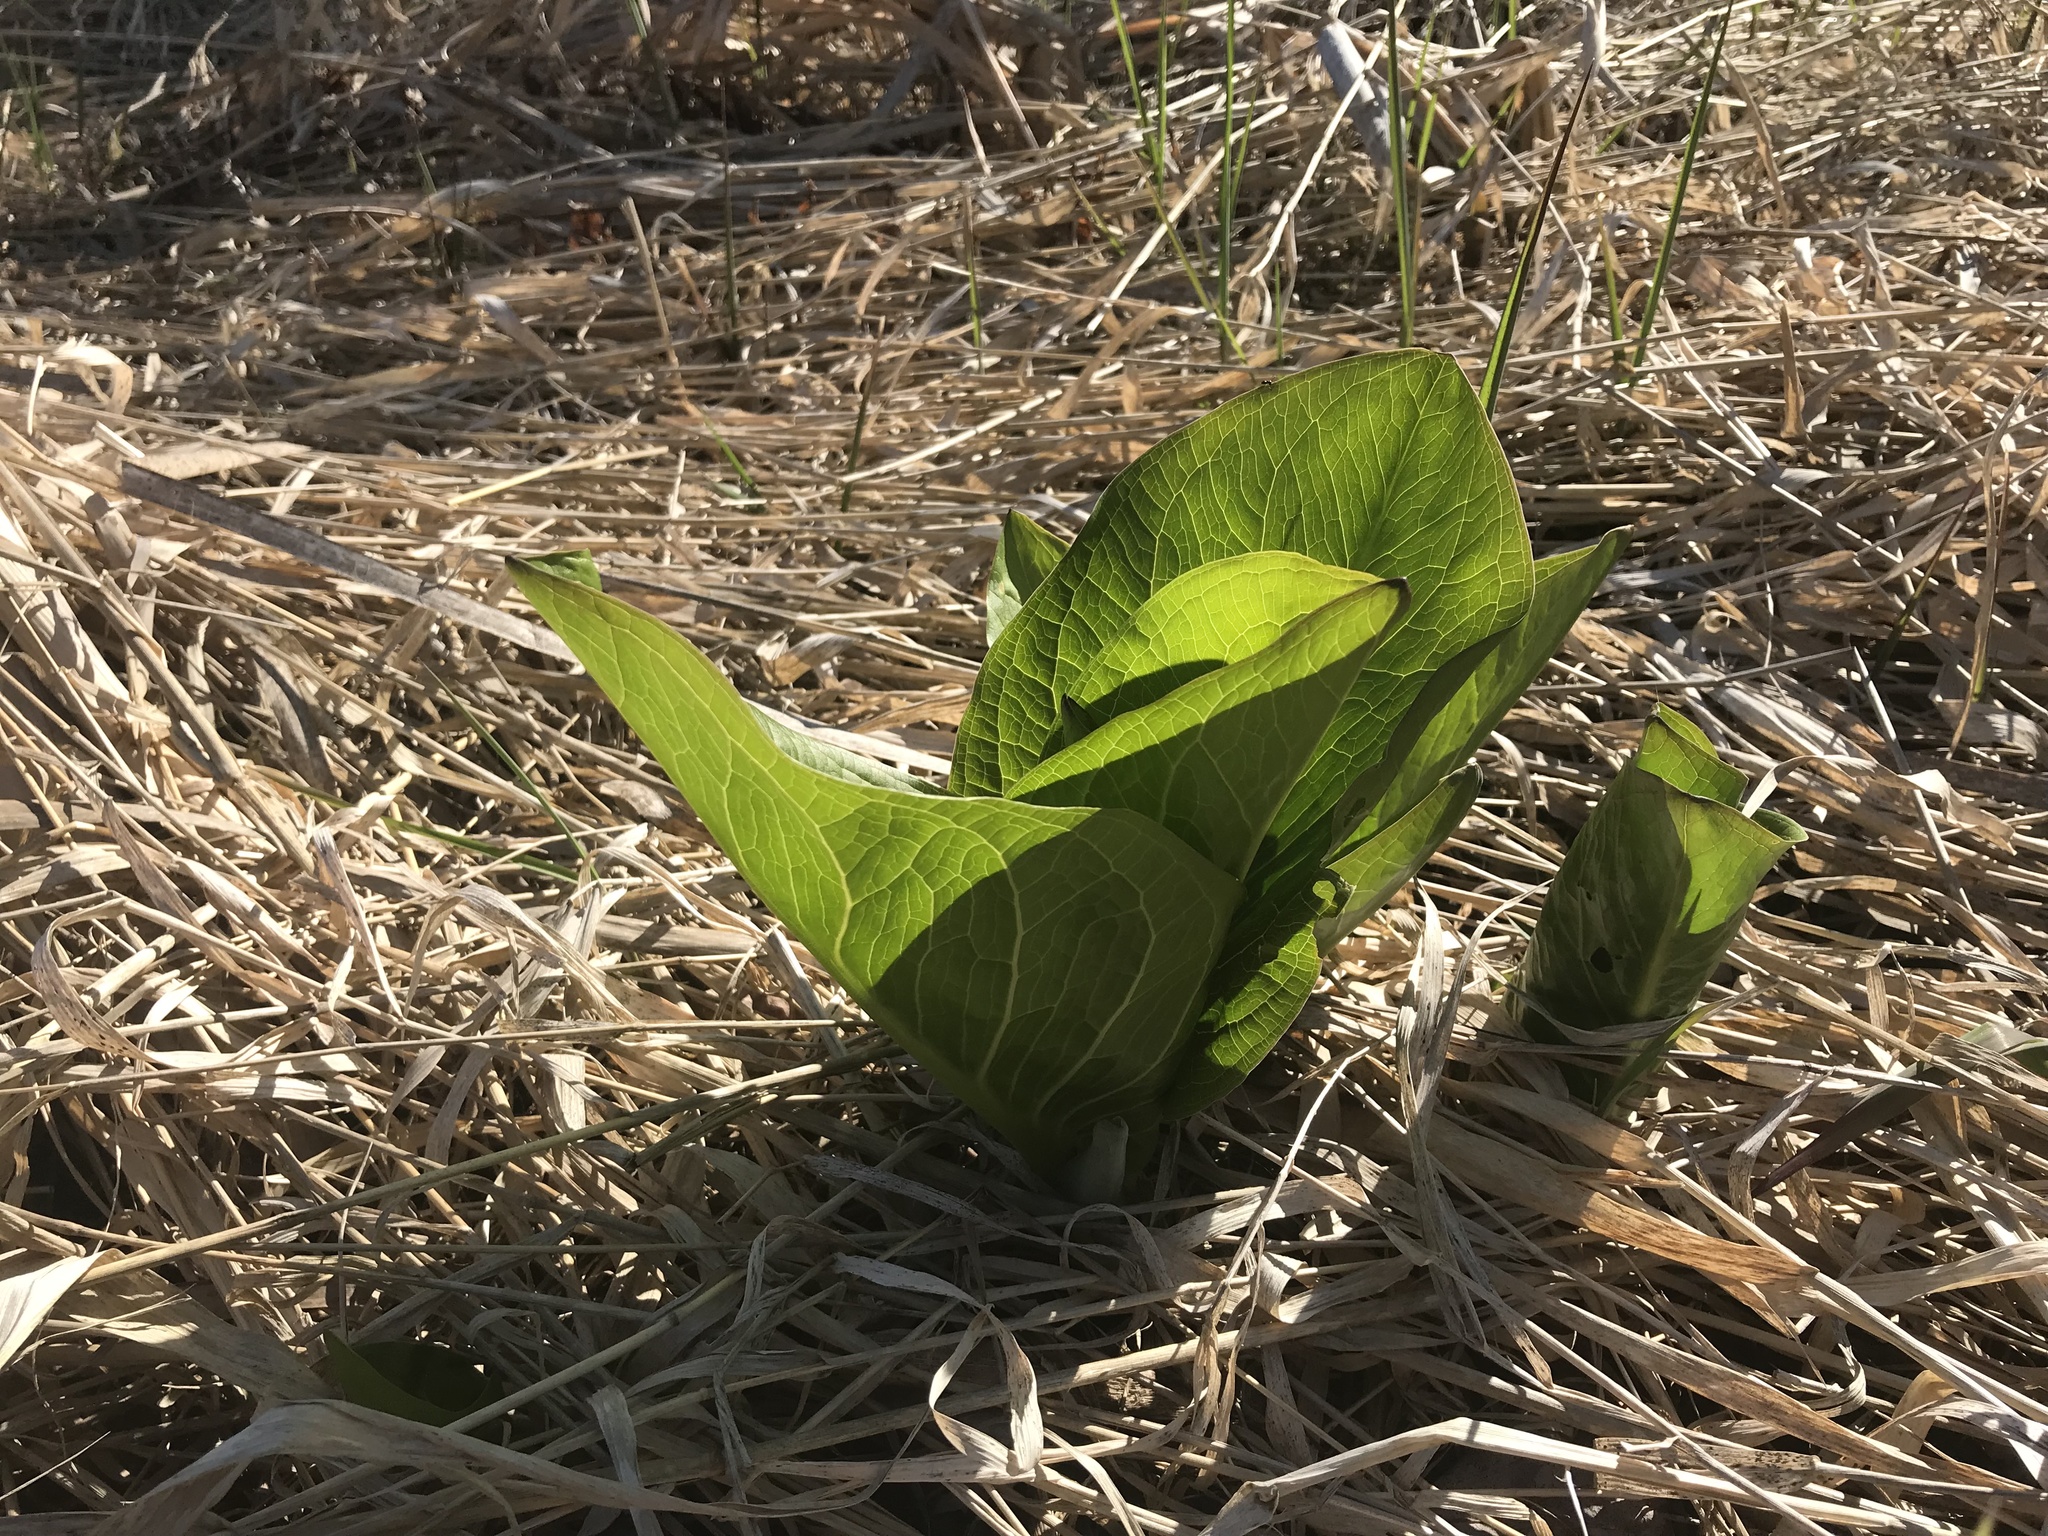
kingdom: Plantae
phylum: Tracheophyta
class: Liliopsida
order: Alismatales
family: Araceae
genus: Symplocarpus
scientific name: Symplocarpus foetidus
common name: Eastern skunk cabbage
